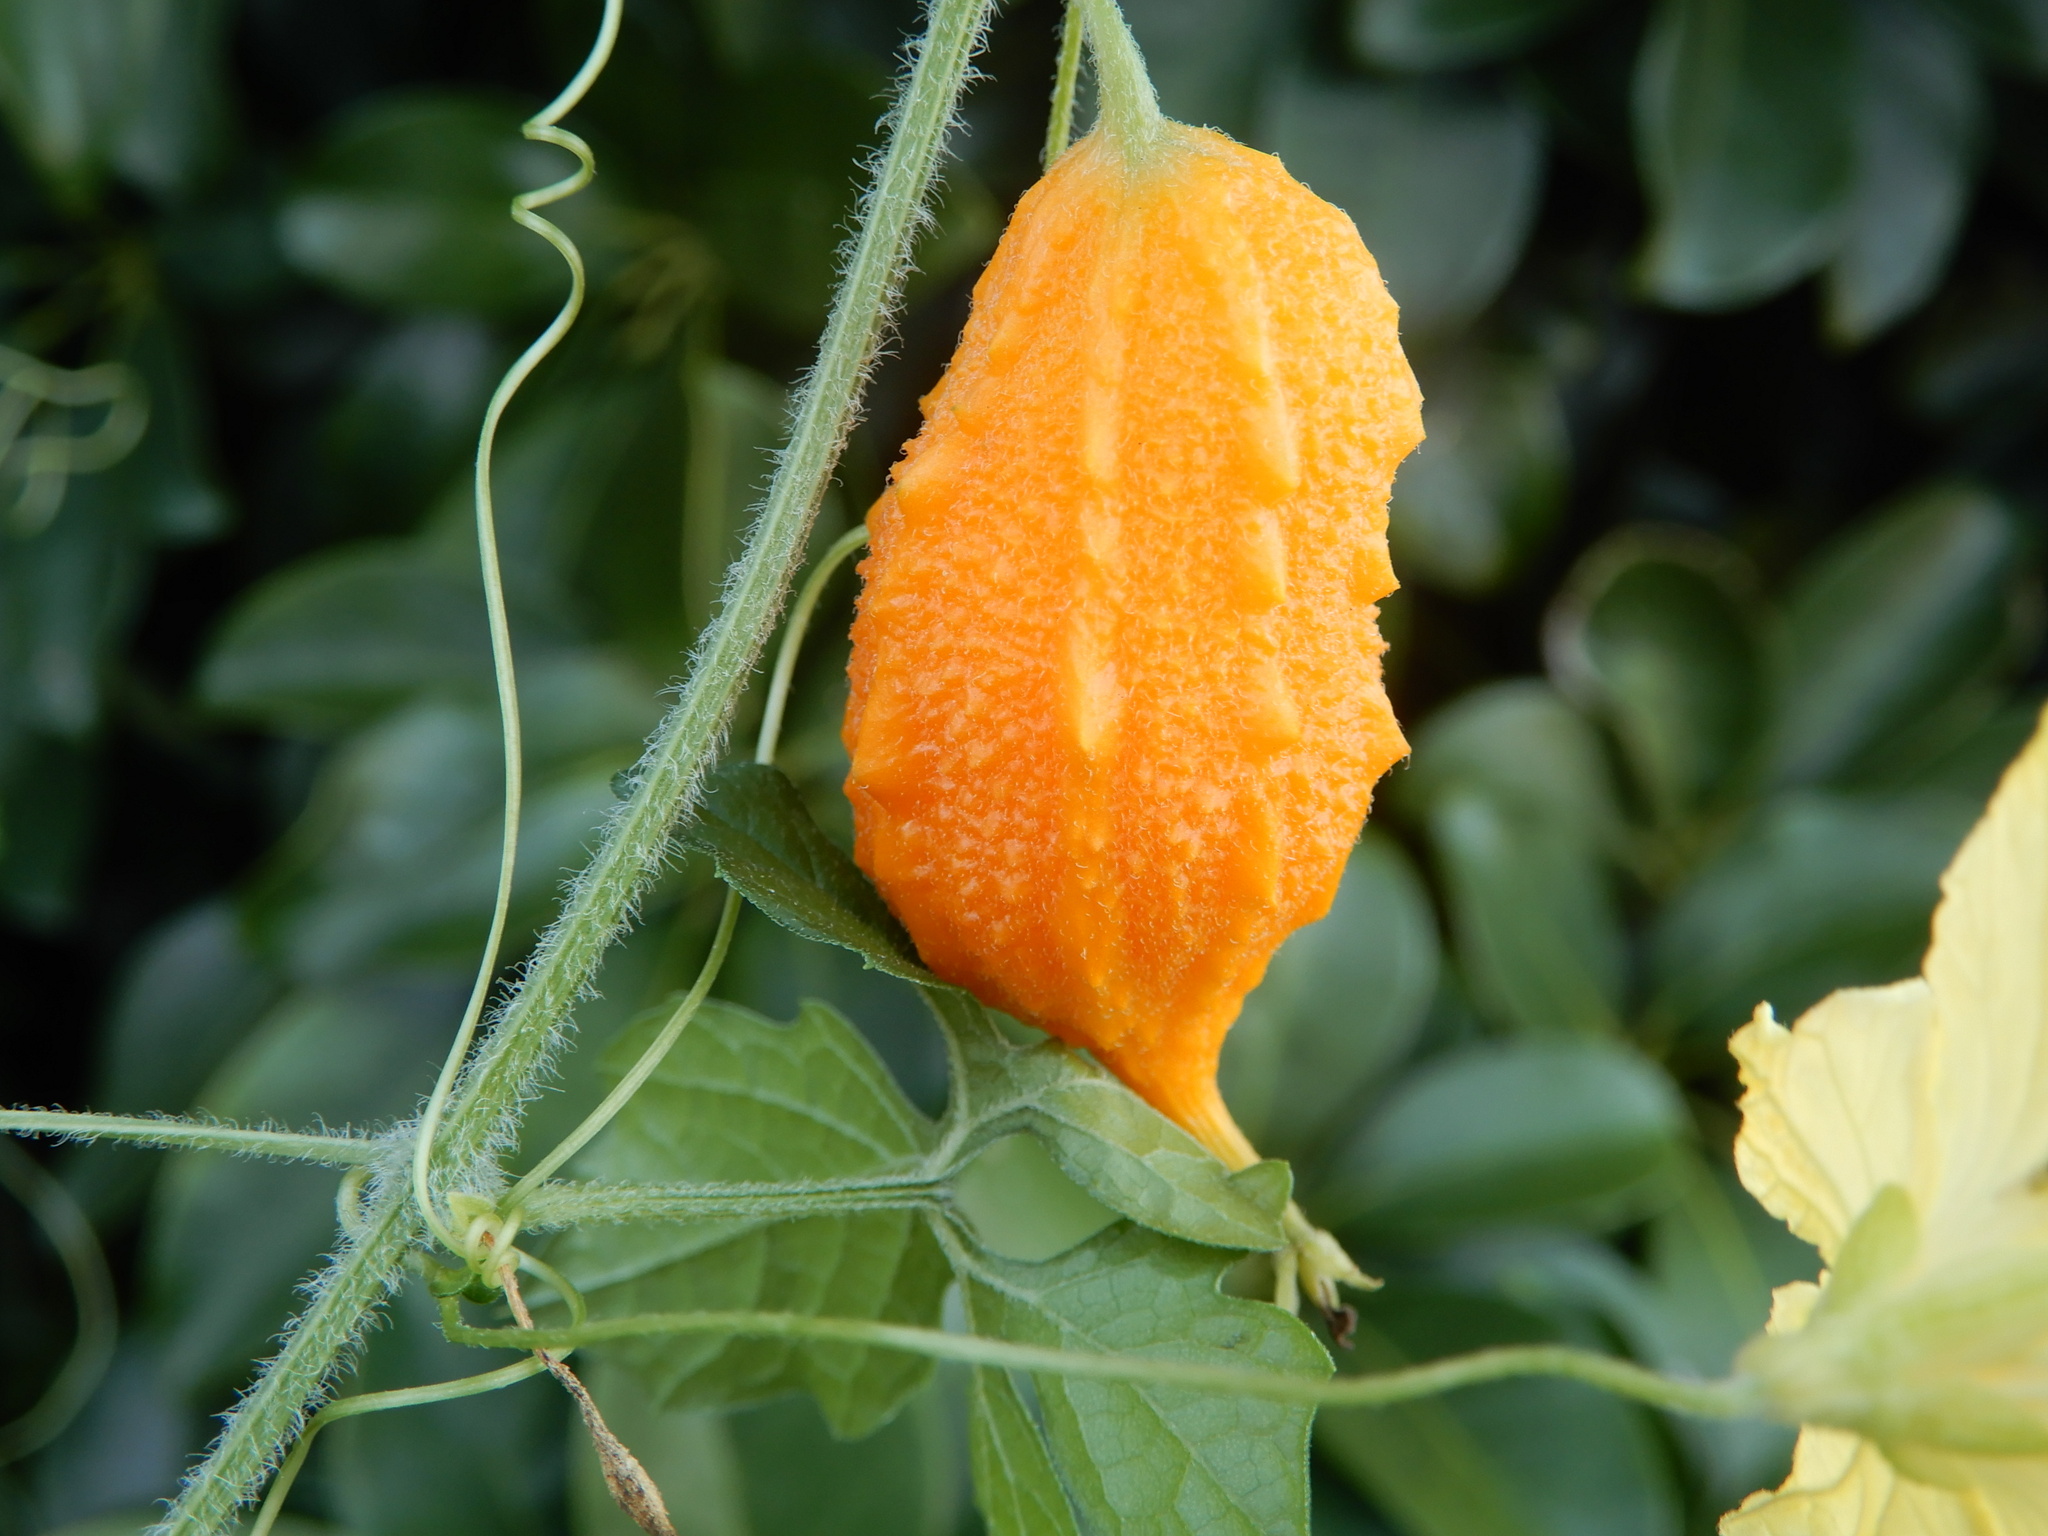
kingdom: Plantae
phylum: Tracheophyta
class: Magnoliopsida
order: Cucurbitales
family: Cucurbitaceae
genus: Momordica
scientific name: Momordica charantia
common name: Balsampear
